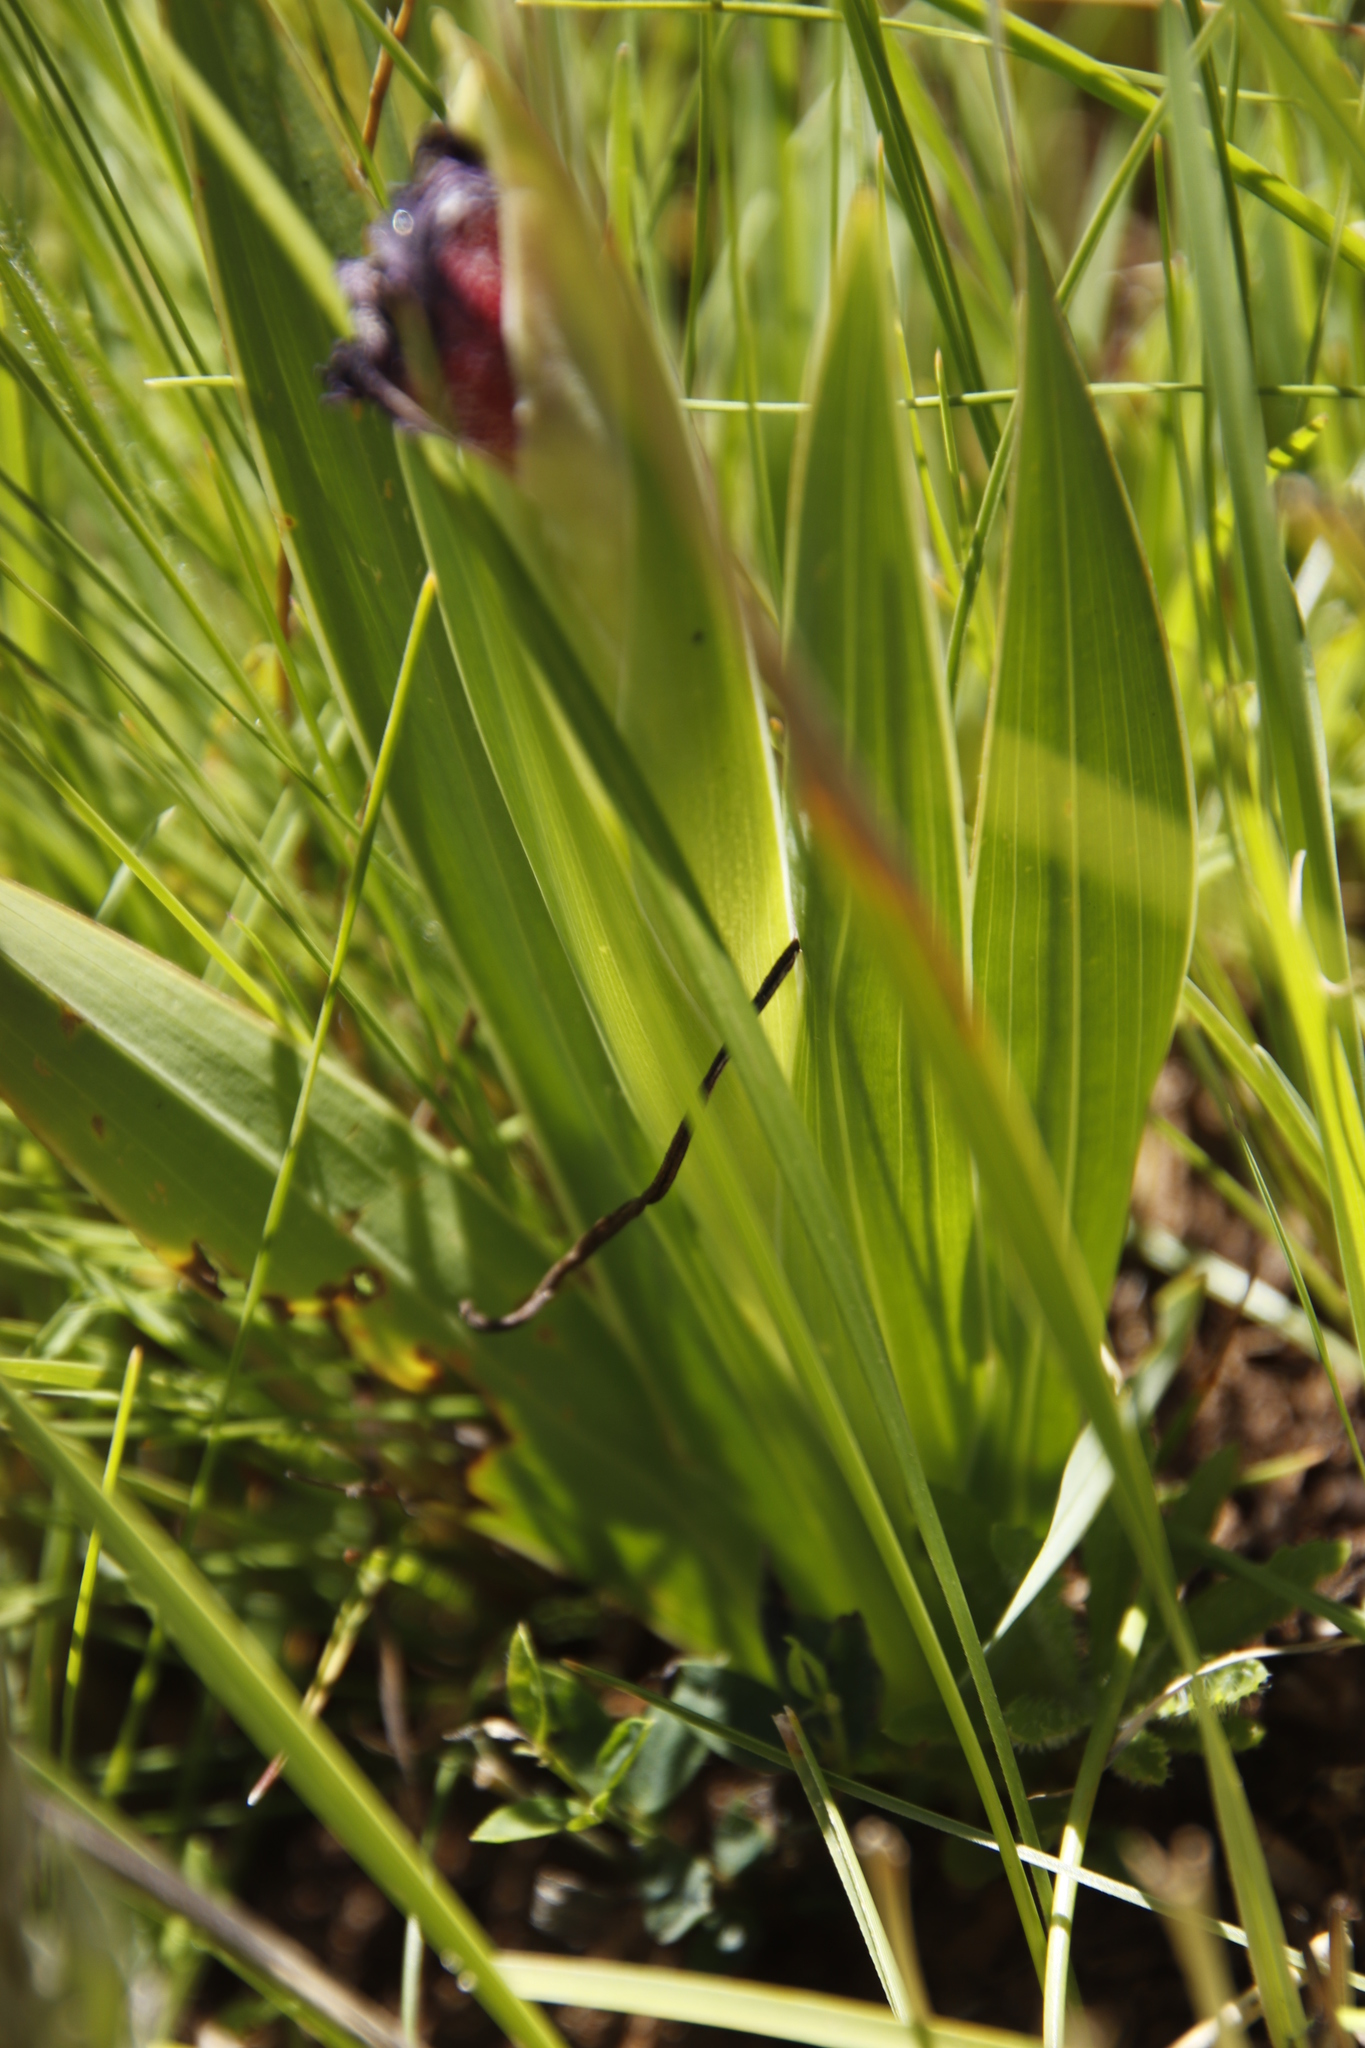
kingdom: Plantae
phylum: Tracheophyta
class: Liliopsida
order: Asparagales
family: Iridaceae
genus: Gladiolus
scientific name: Gladiolus ecklonii
